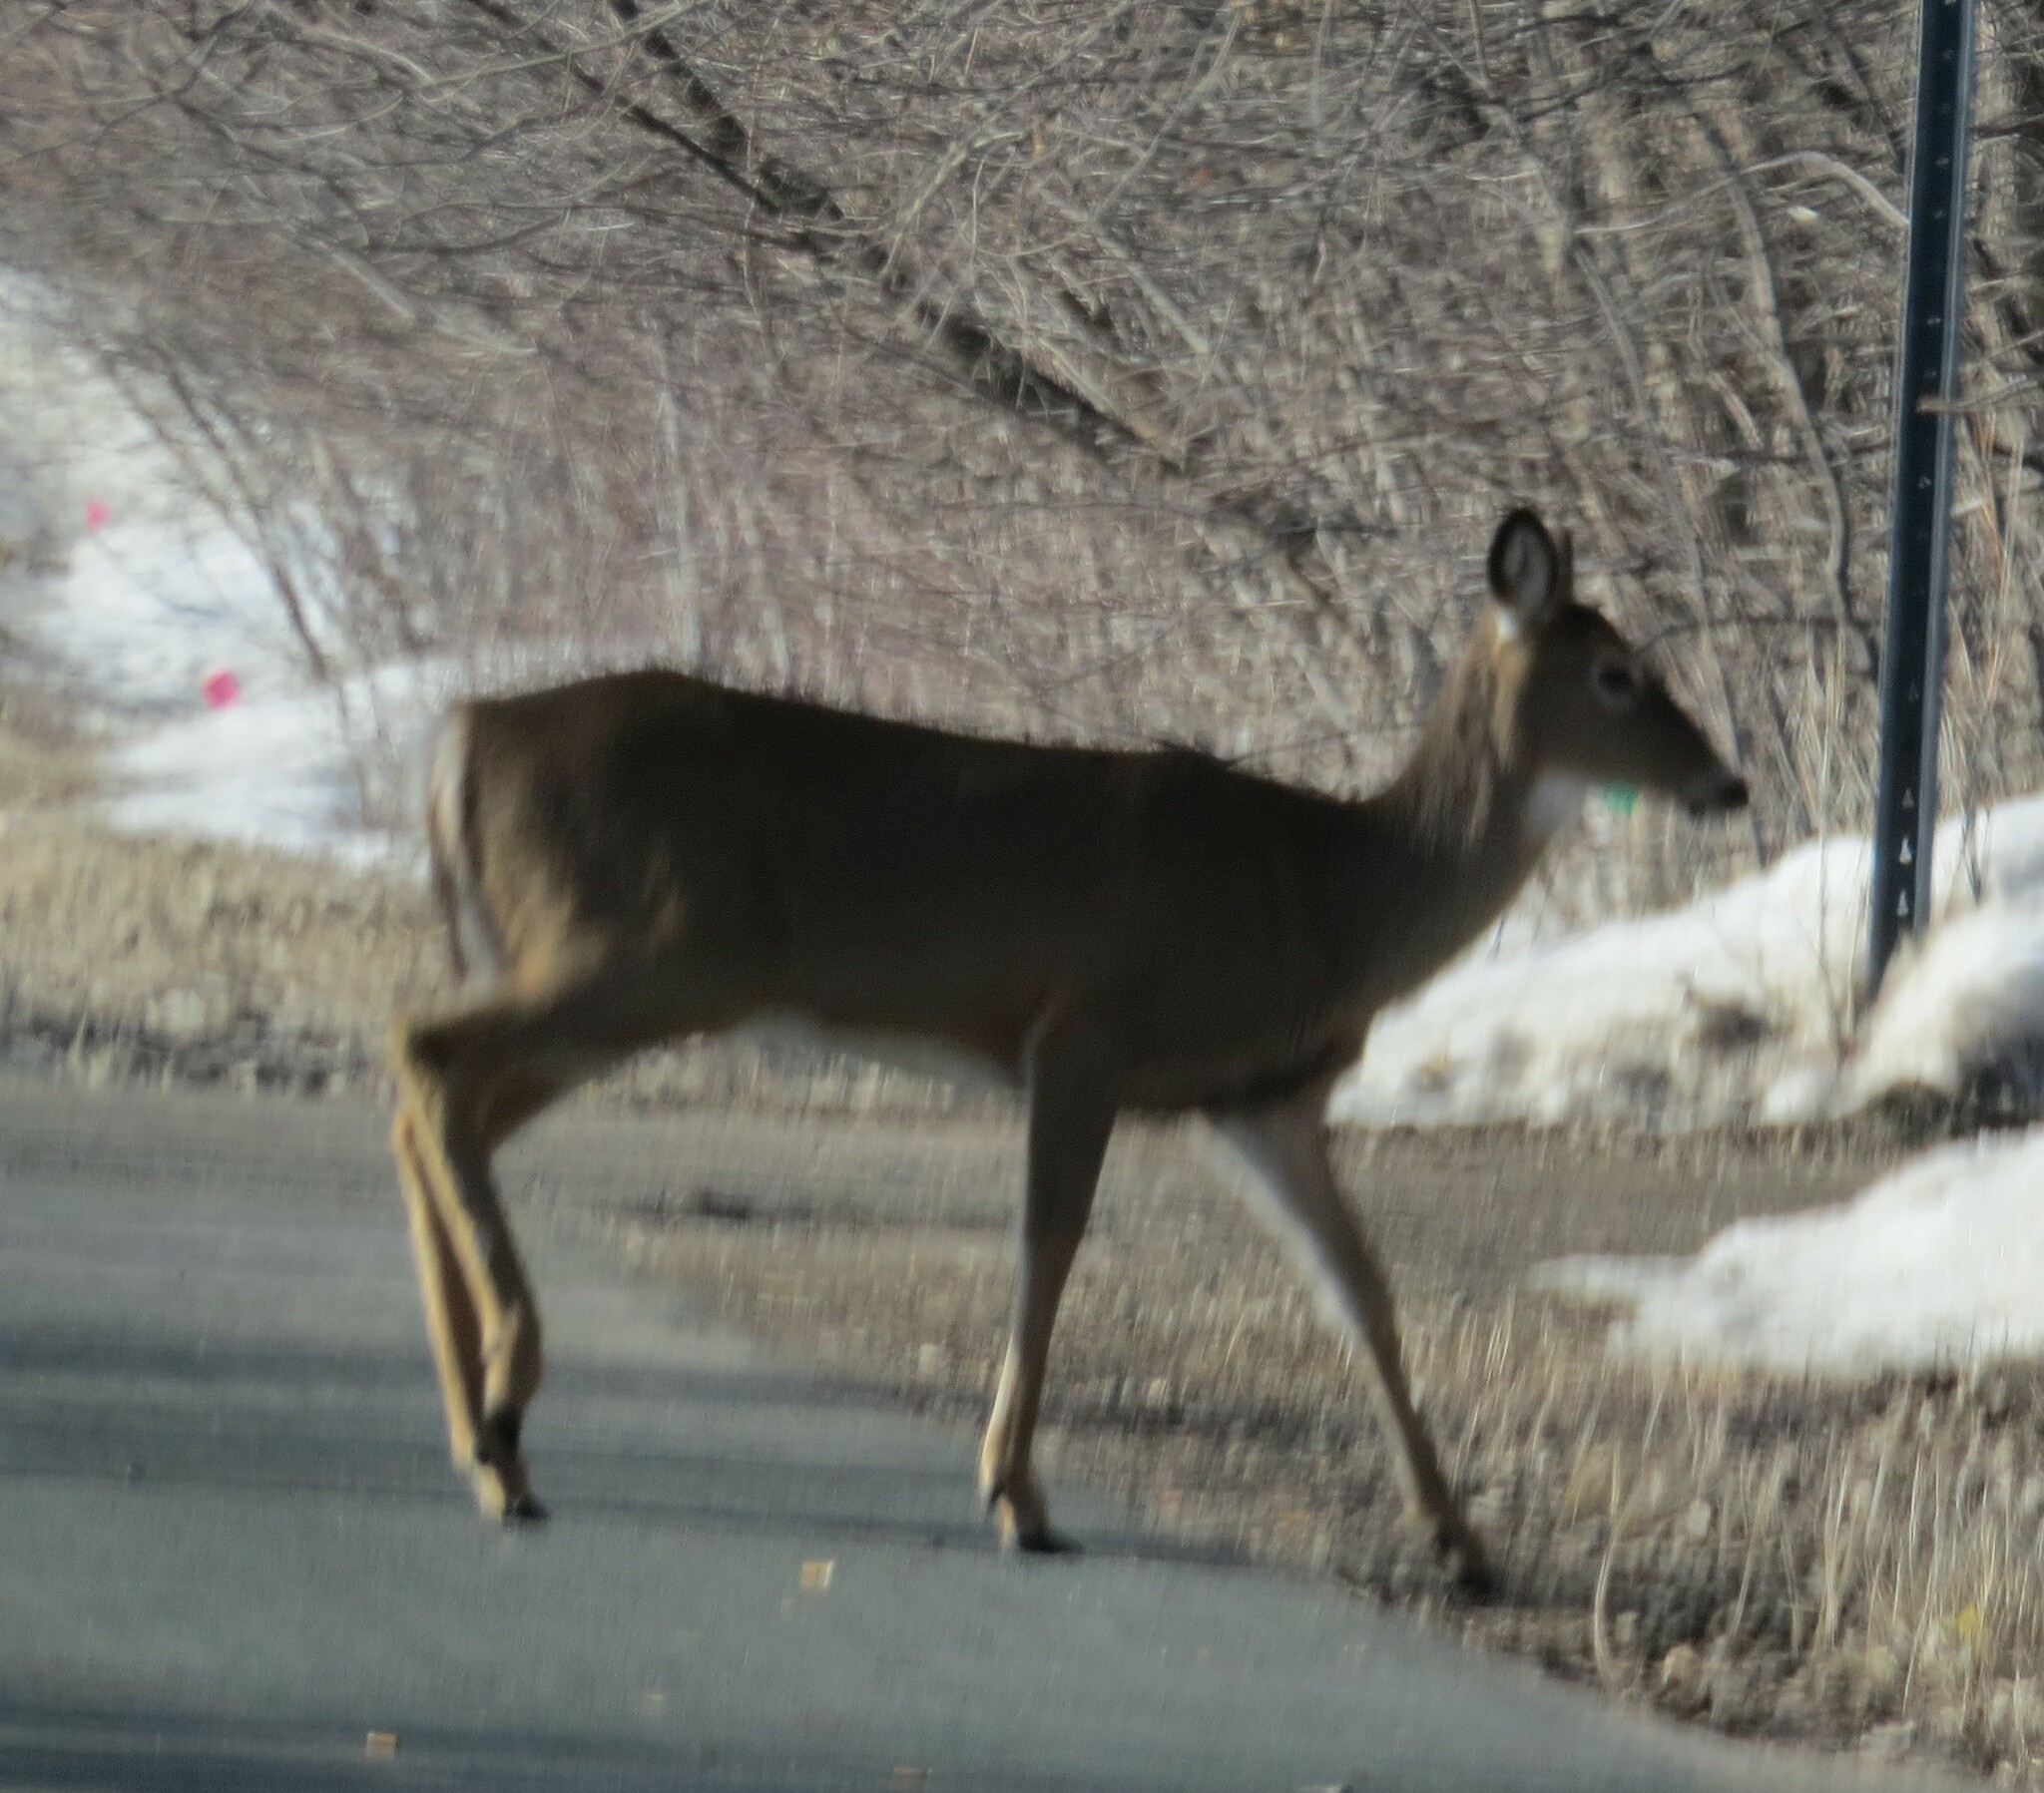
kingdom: Animalia
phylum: Chordata
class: Mammalia
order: Artiodactyla
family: Cervidae
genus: Odocoileus
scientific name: Odocoileus virginianus
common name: White-tailed deer
